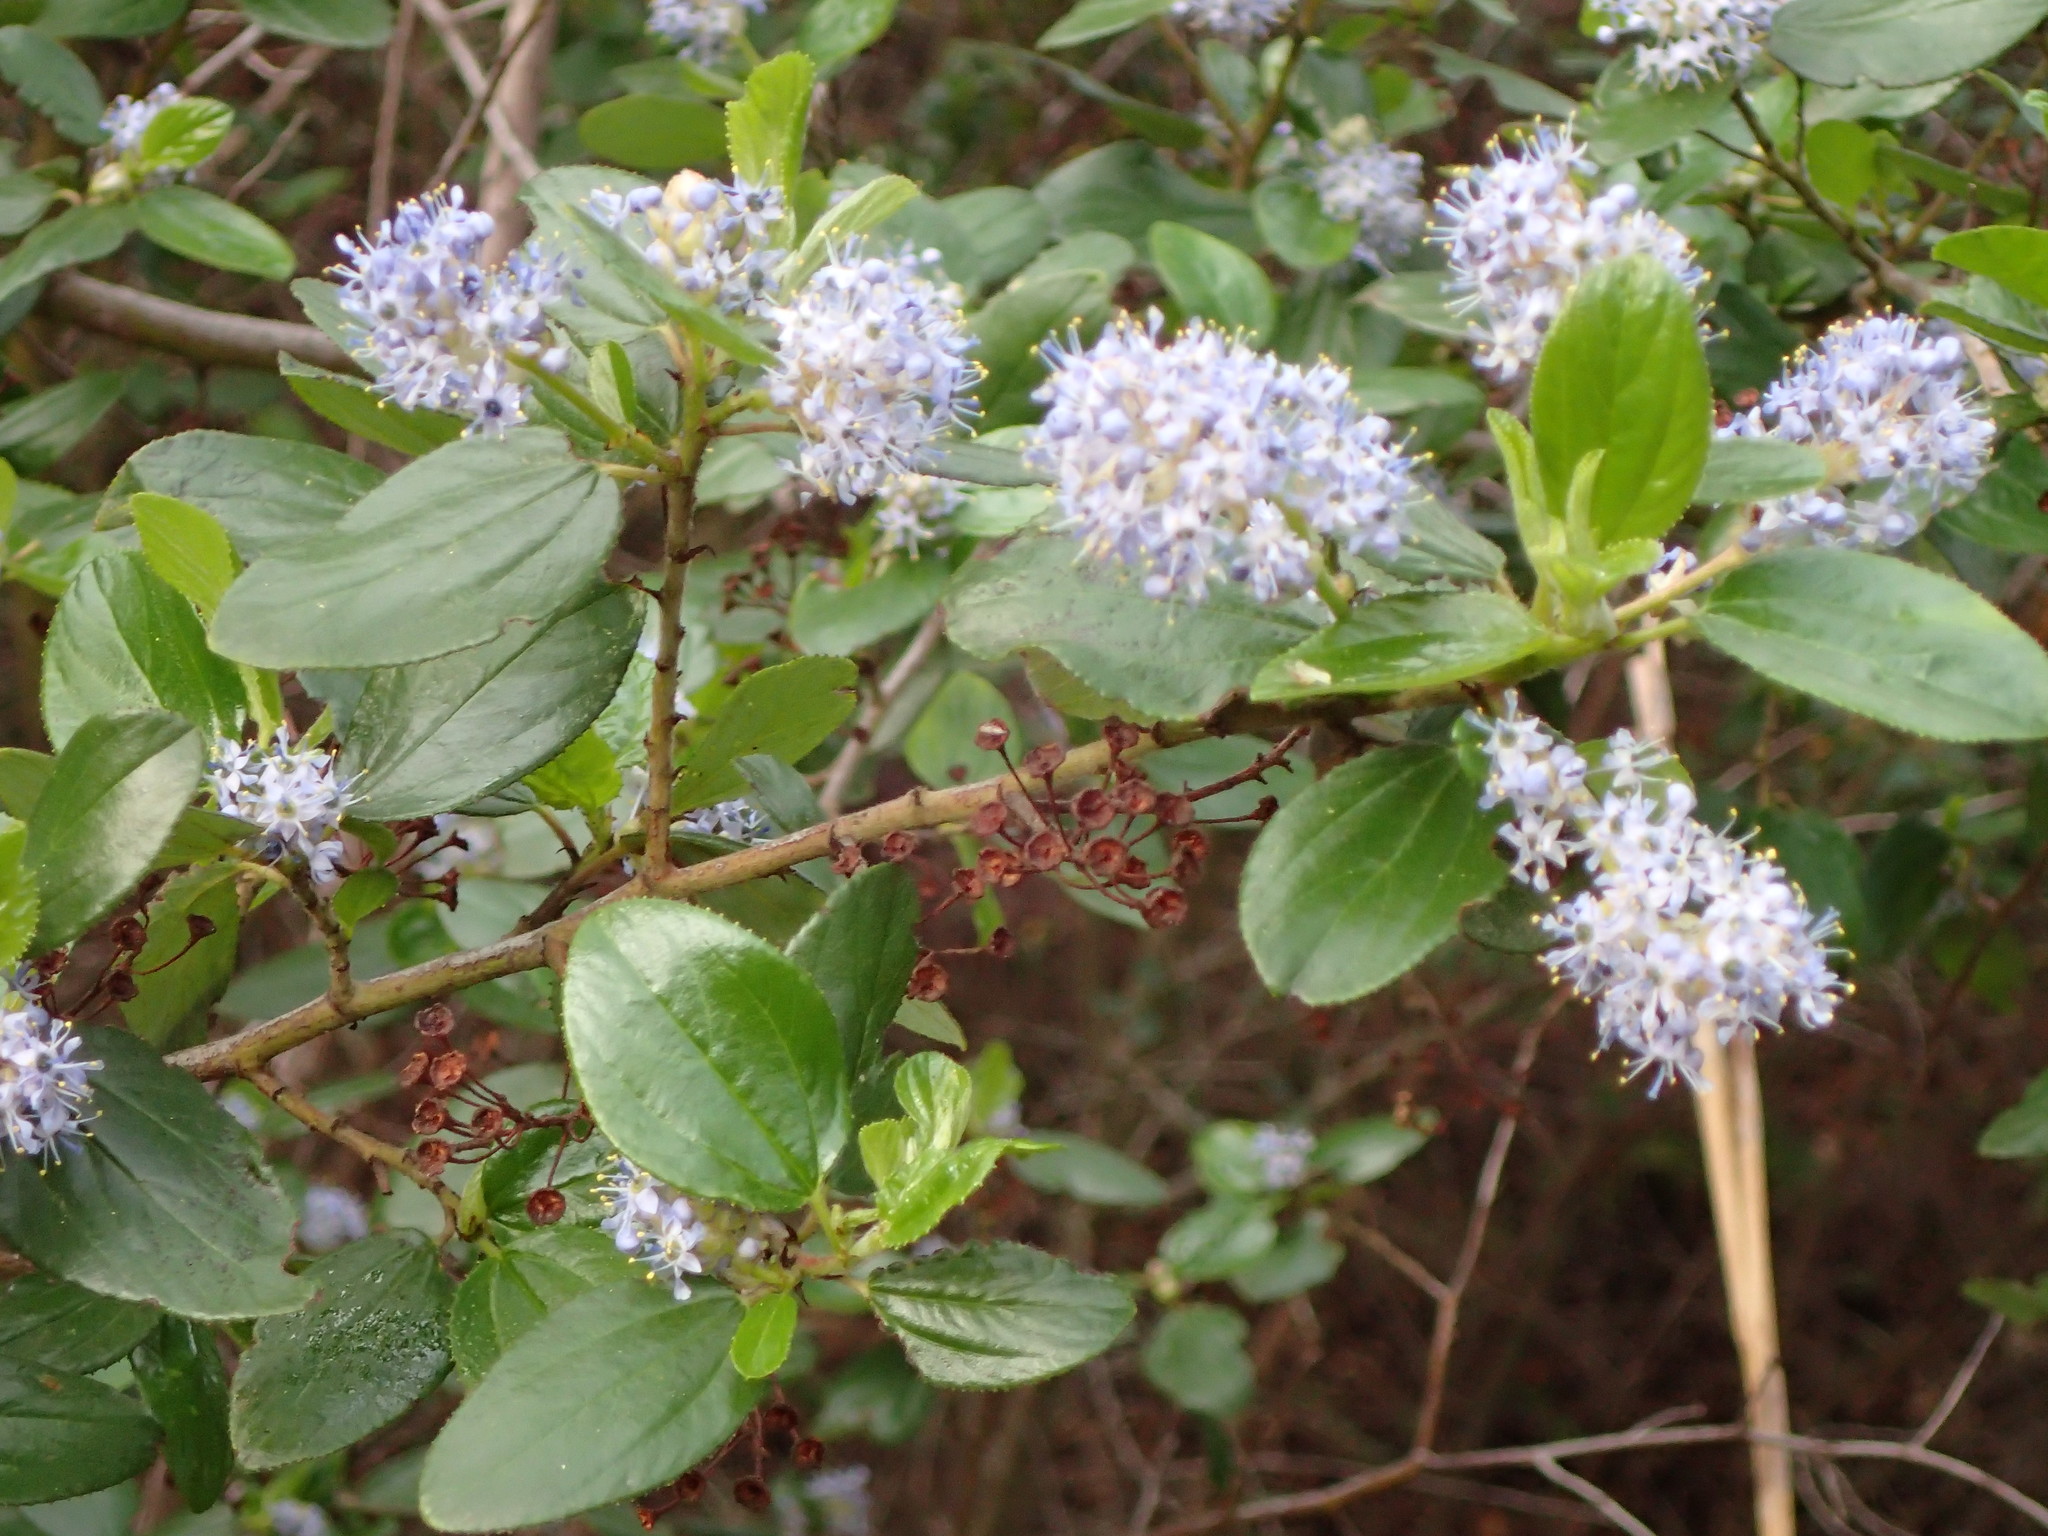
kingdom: Plantae
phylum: Tracheophyta
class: Magnoliopsida
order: Rosales
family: Rhamnaceae
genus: Ceanothus
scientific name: Ceanothus oliganthus
